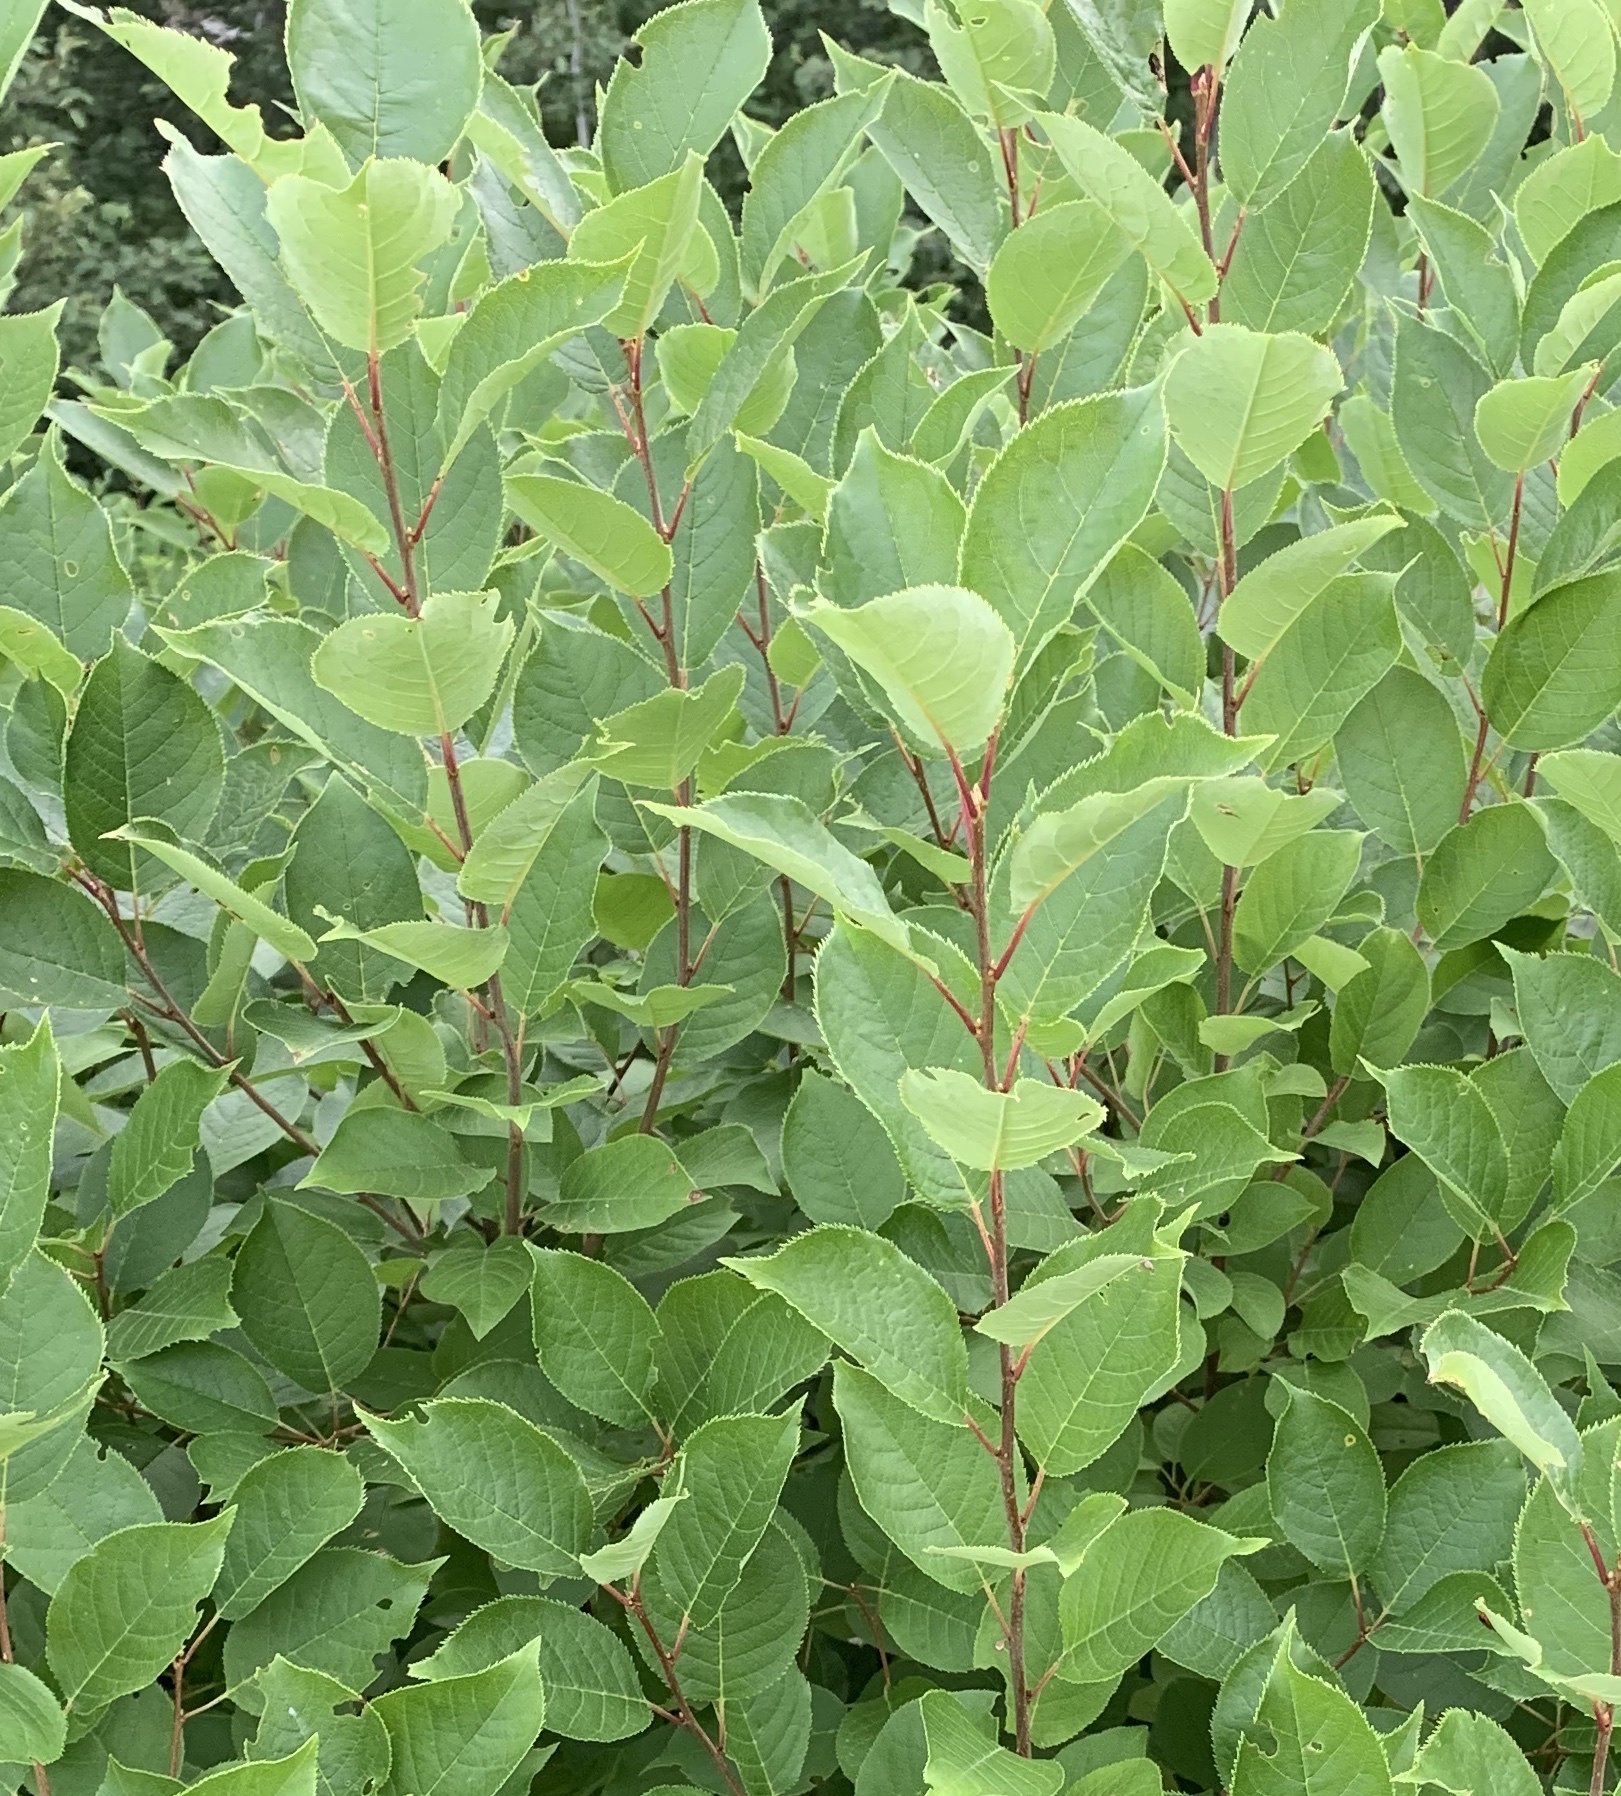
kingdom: Plantae
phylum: Tracheophyta
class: Magnoliopsida
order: Rosales
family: Rosaceae
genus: Prunus
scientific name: Prunus virginiana
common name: Chokecherry
